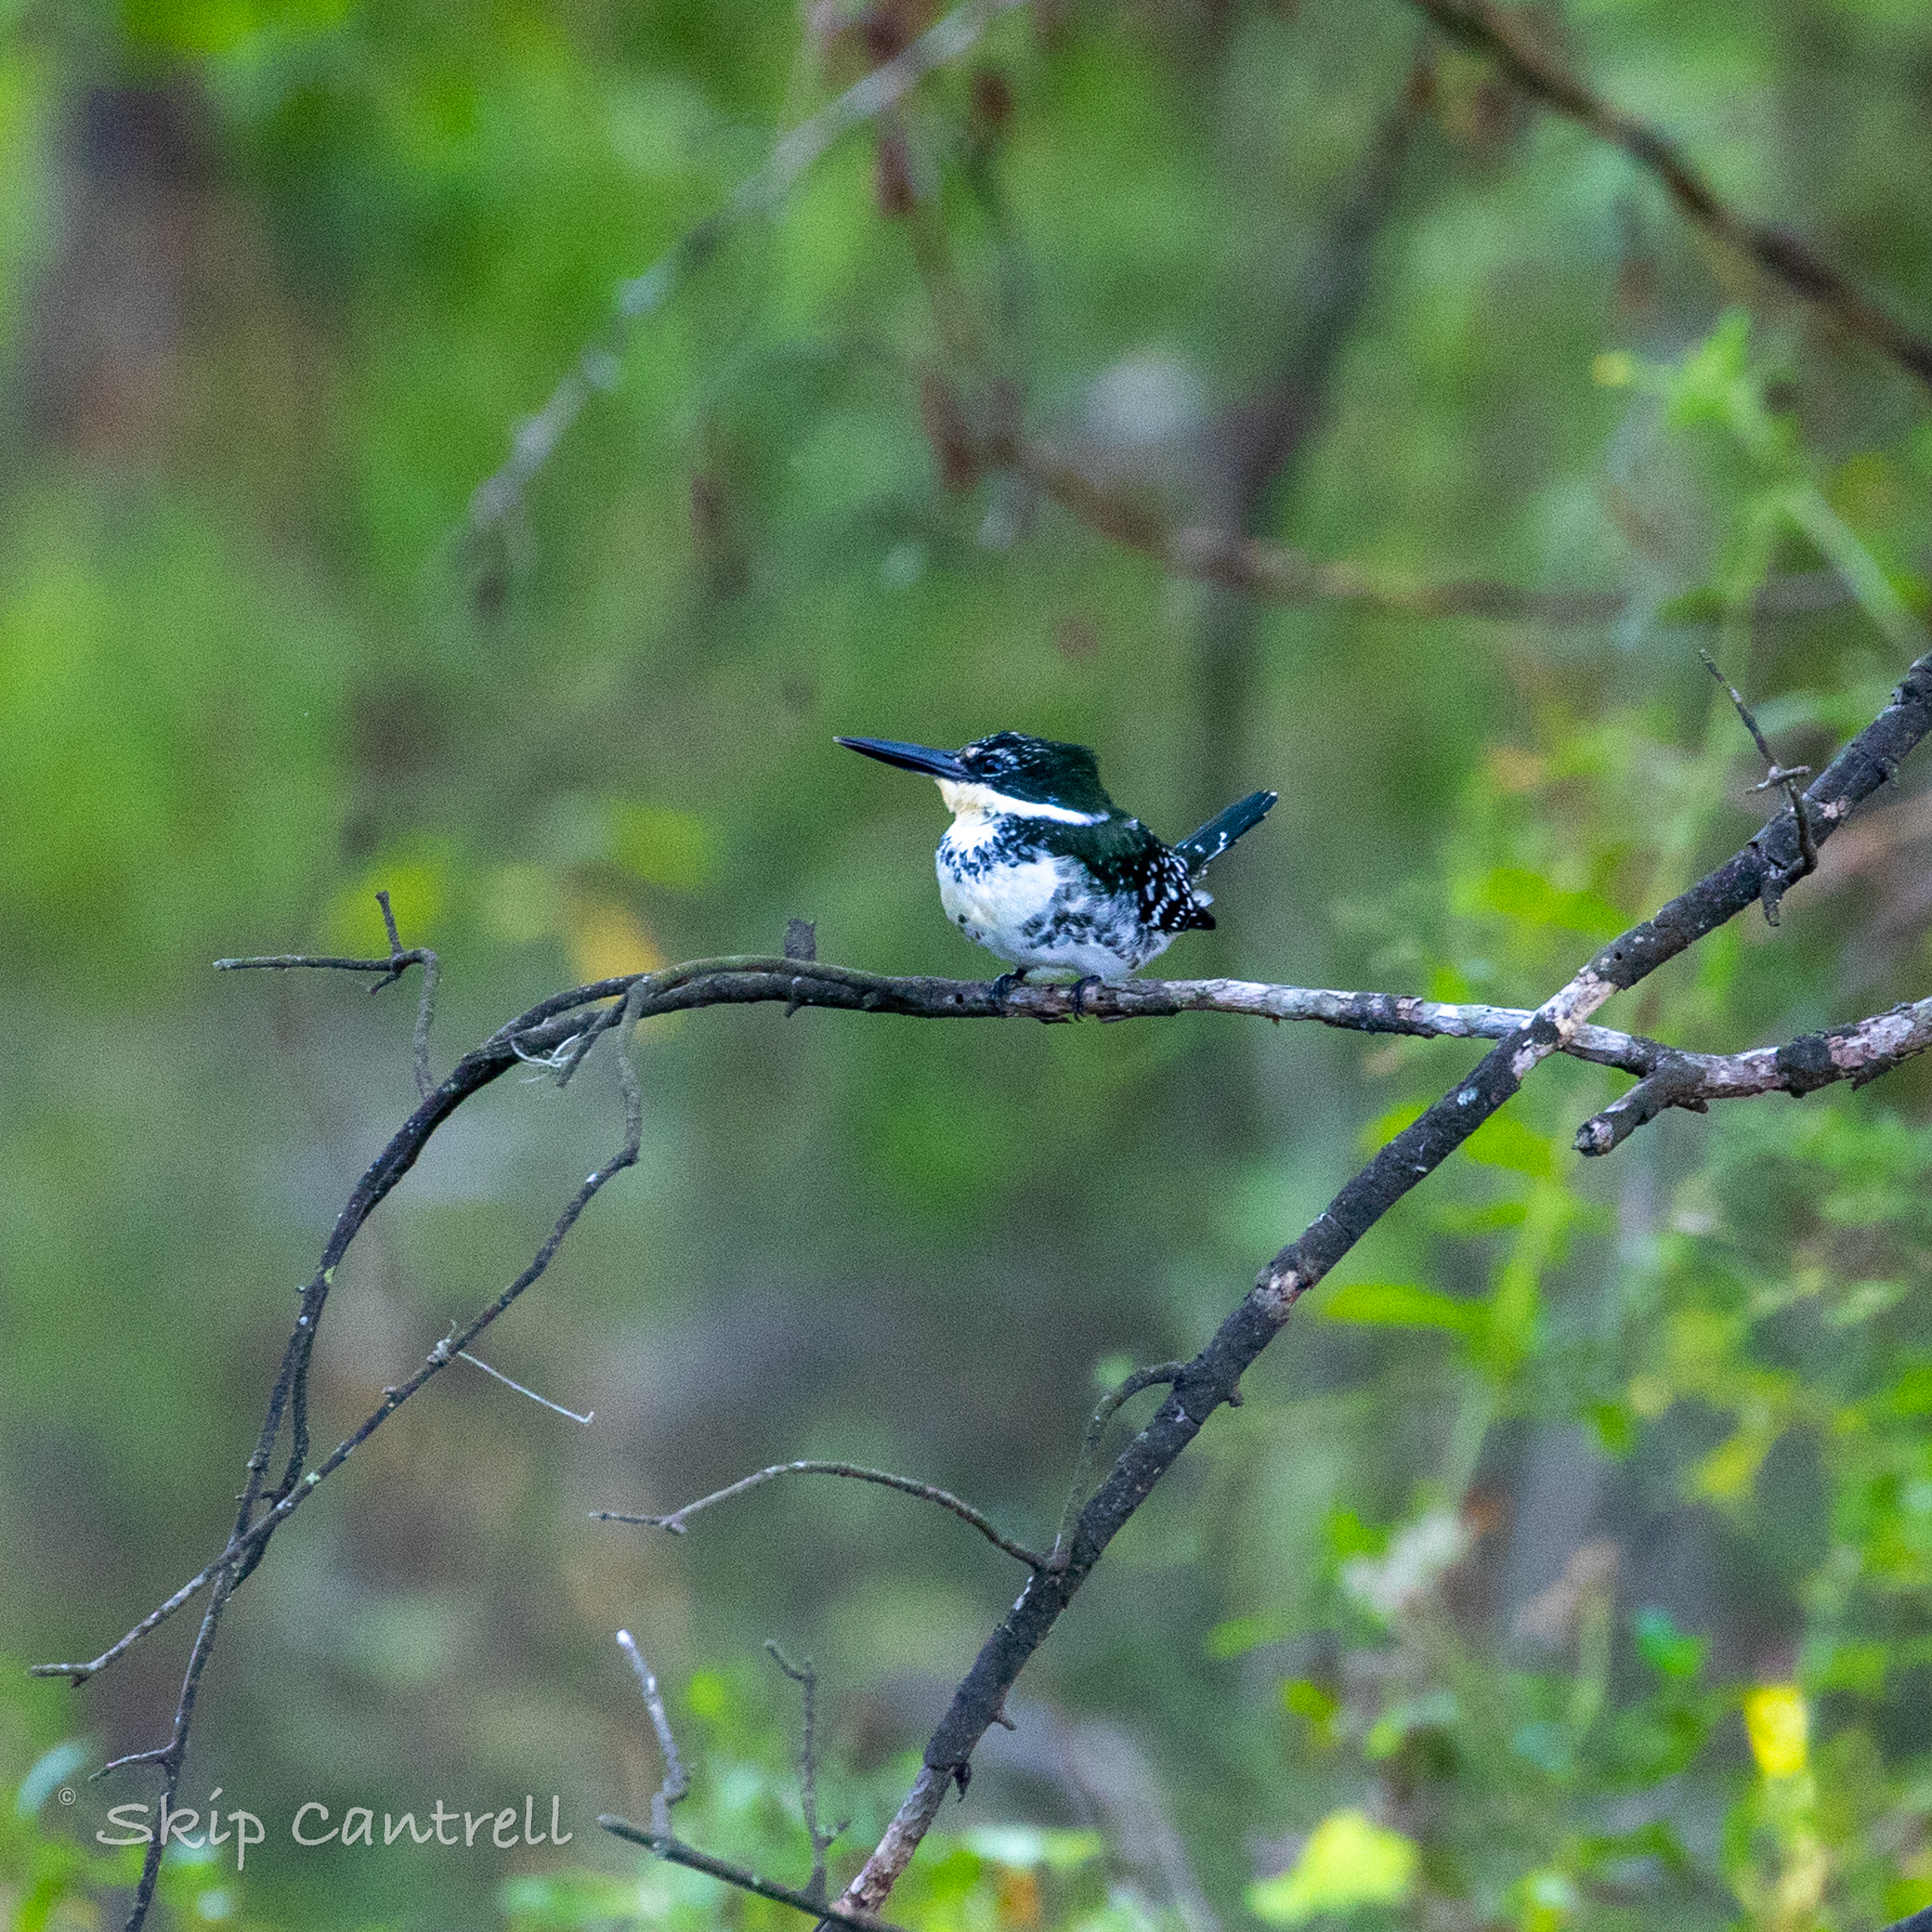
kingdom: Animalia
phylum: Chordata
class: Aves
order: Coraciiformes
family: Alcedinidae
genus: Chloroceryle
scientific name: Chloroceryle americana
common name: Green kingfisher
